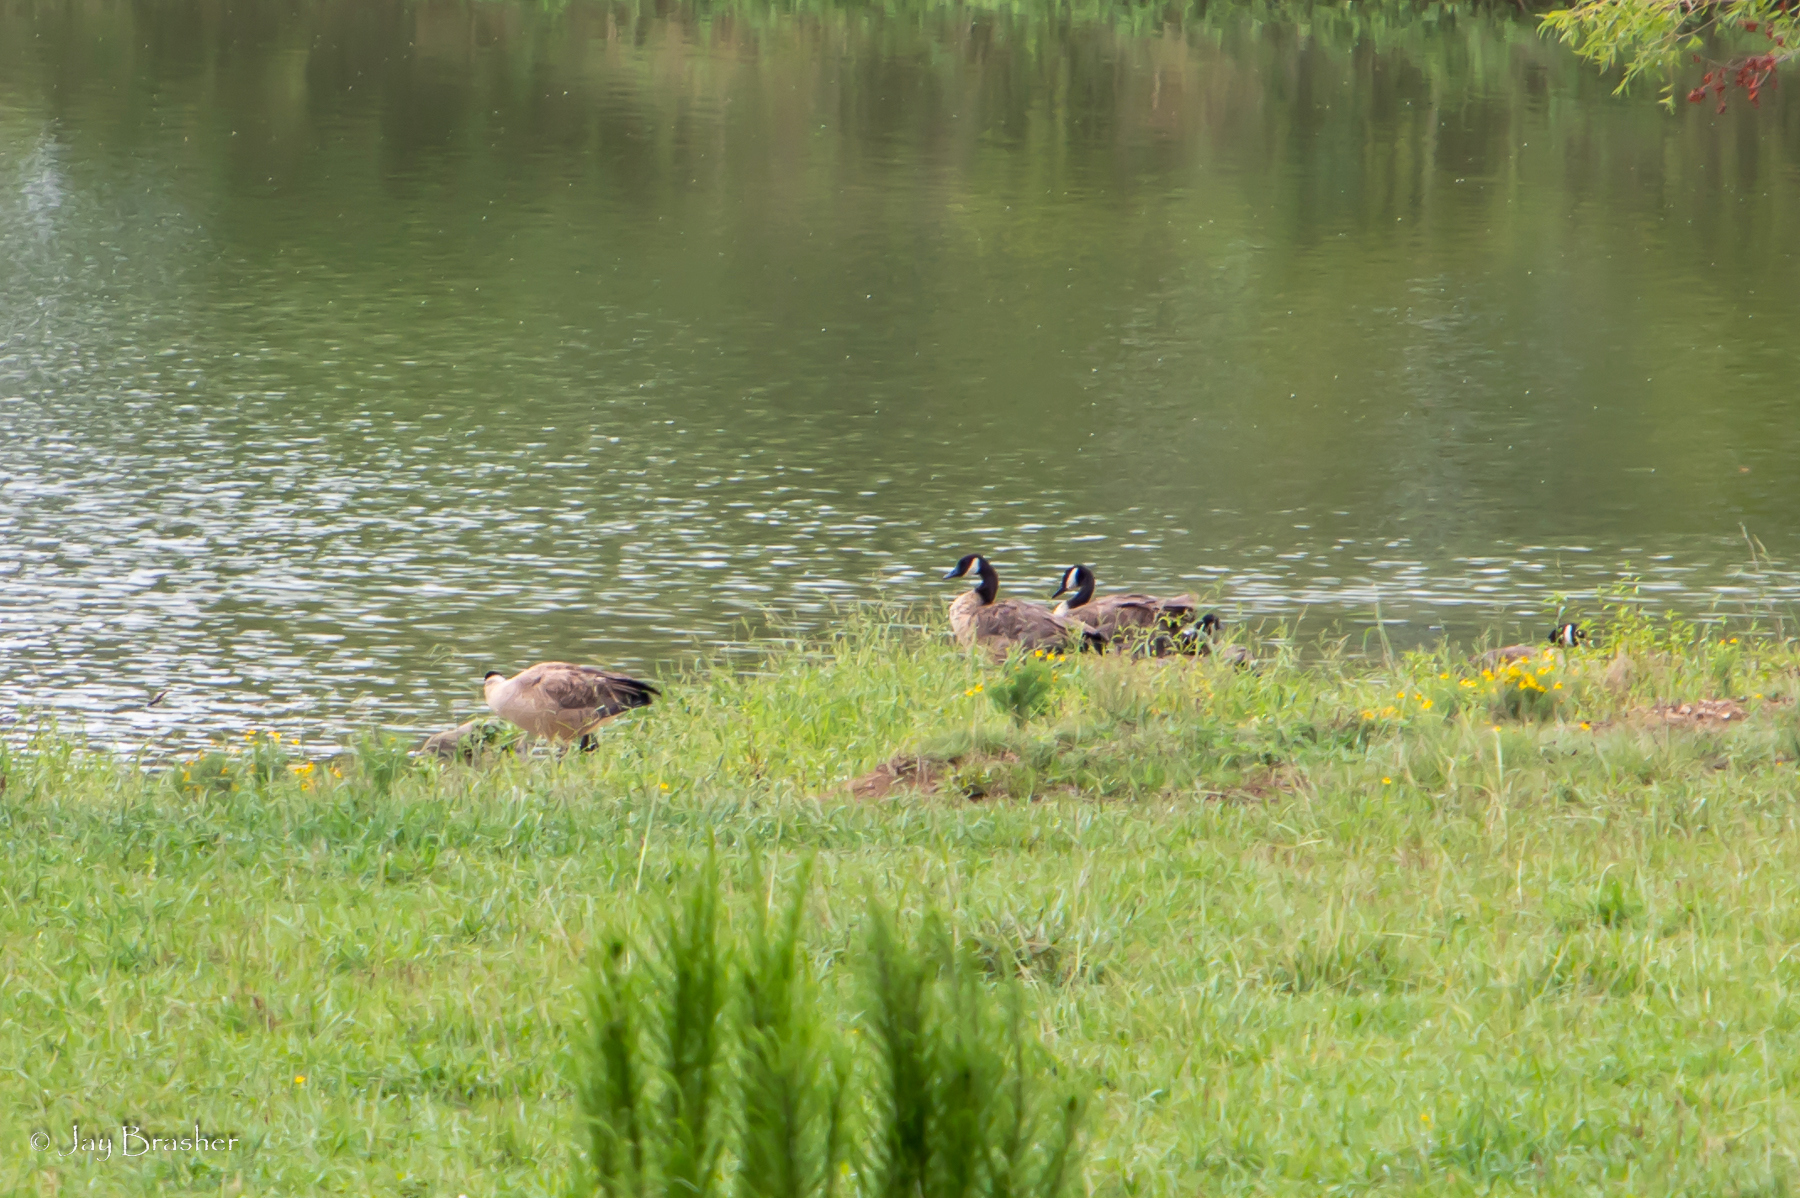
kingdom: Animalia
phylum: Chordata
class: Aves
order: Anseriformes
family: Anatidae
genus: Branta
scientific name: Branta canadensis
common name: Canada goose
